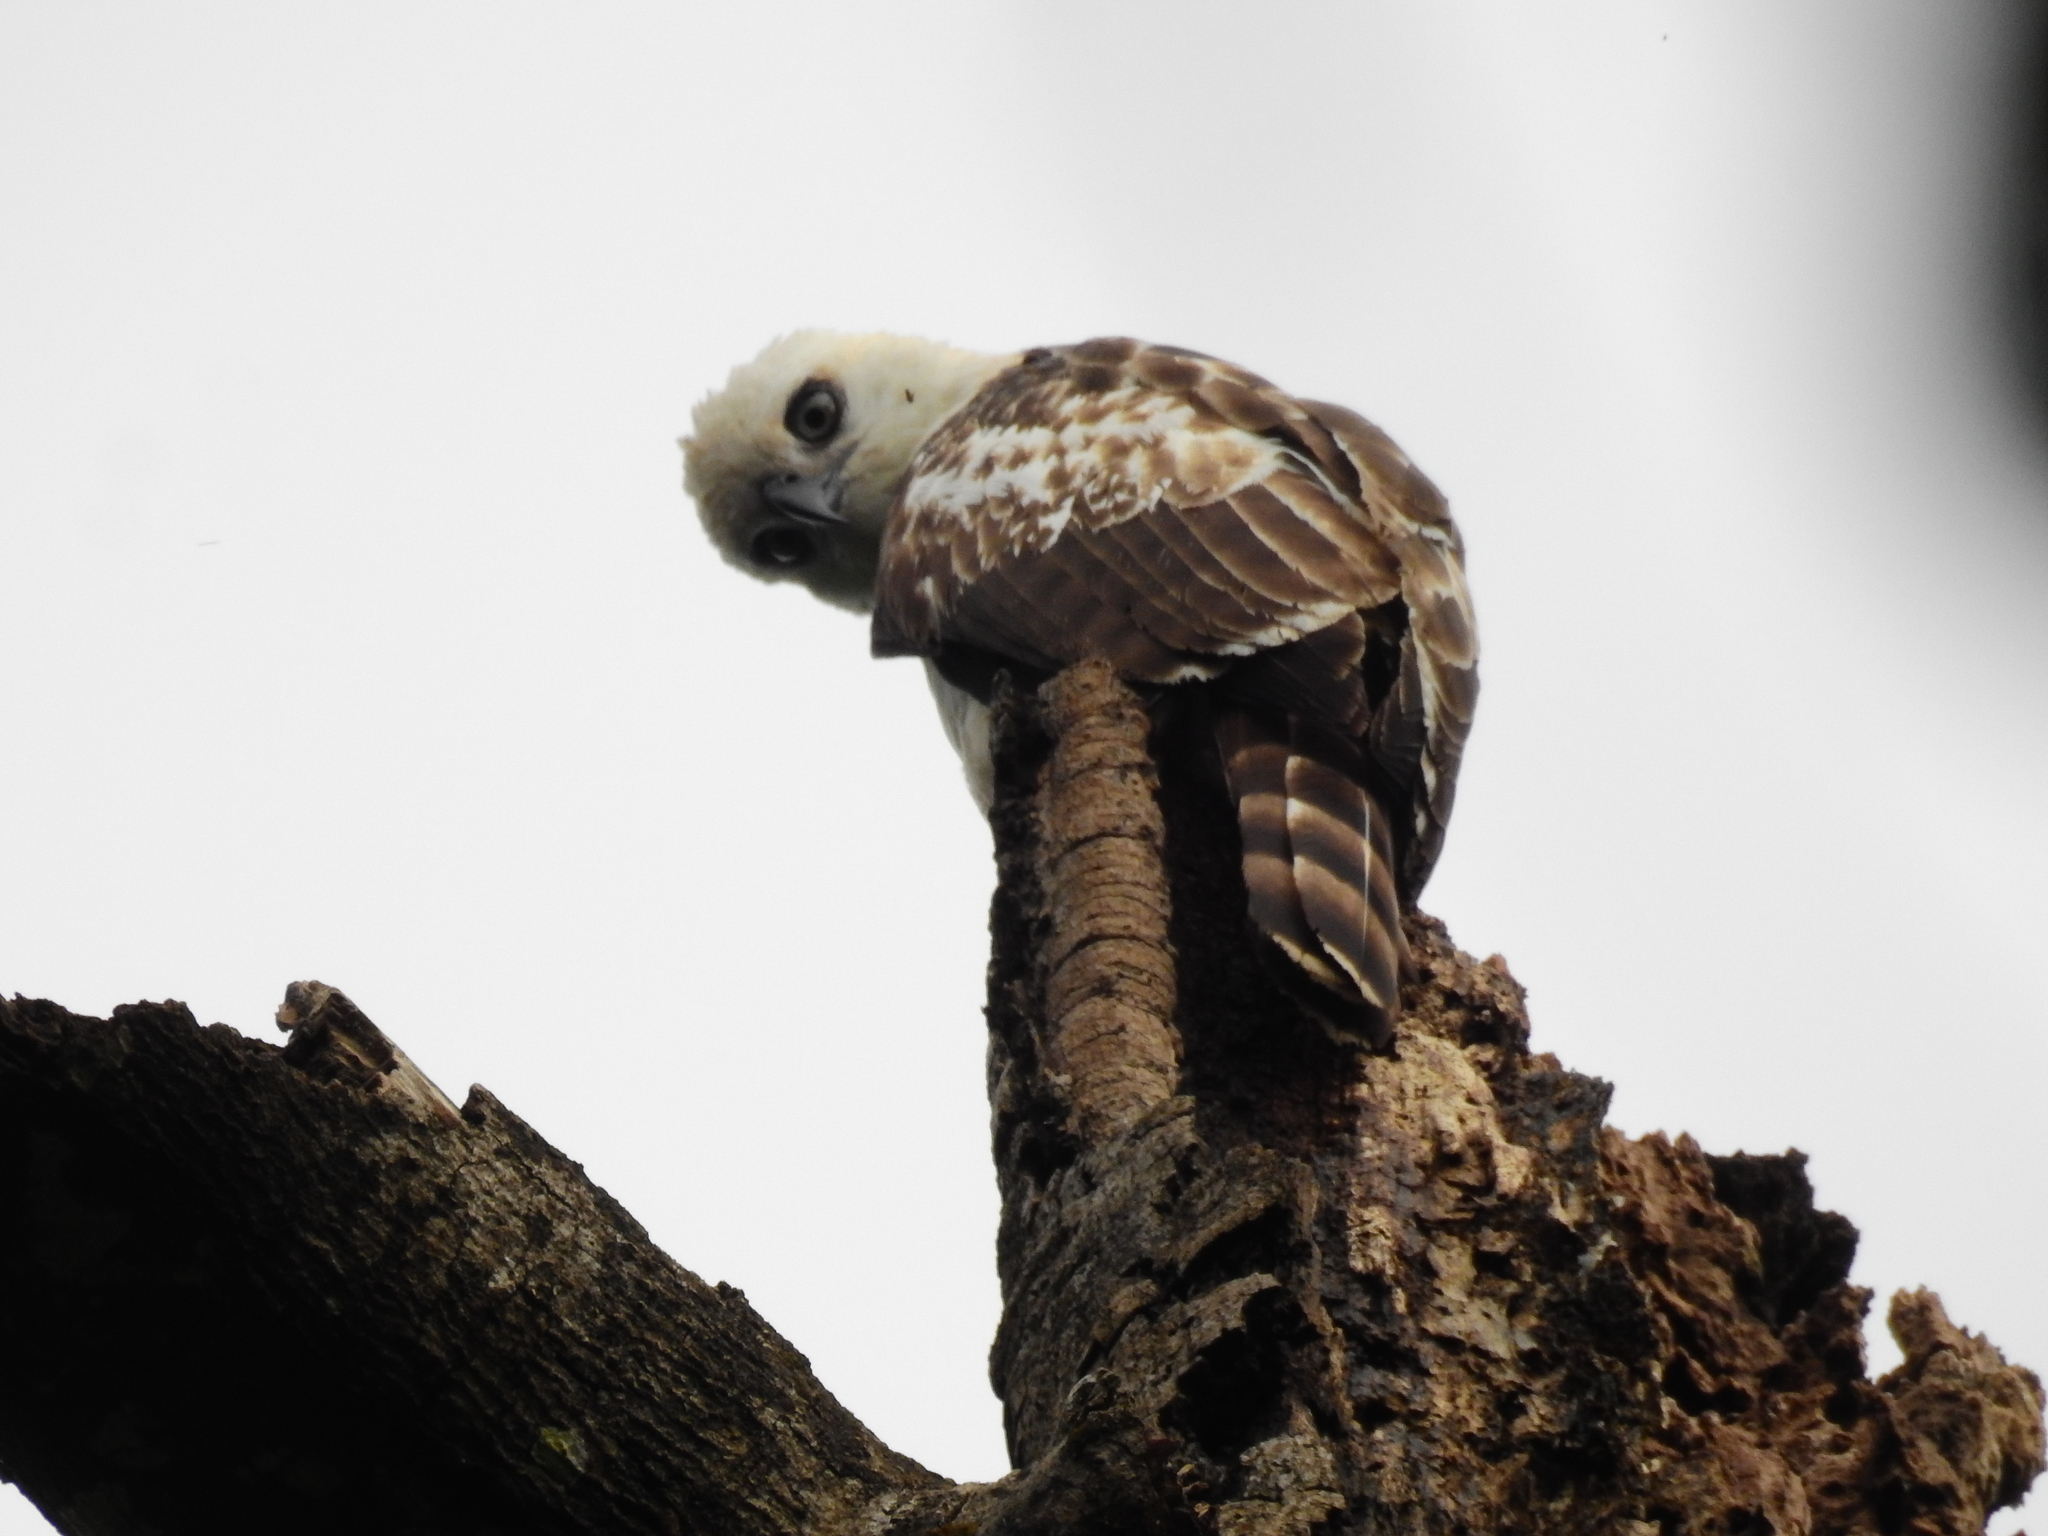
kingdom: Animalia
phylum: Chordata
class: Aves
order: Accipitriformes
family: Accipitridae
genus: Nisaetus
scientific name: Nisaetus lanceolatus
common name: Sulawesi hawk-eagle
